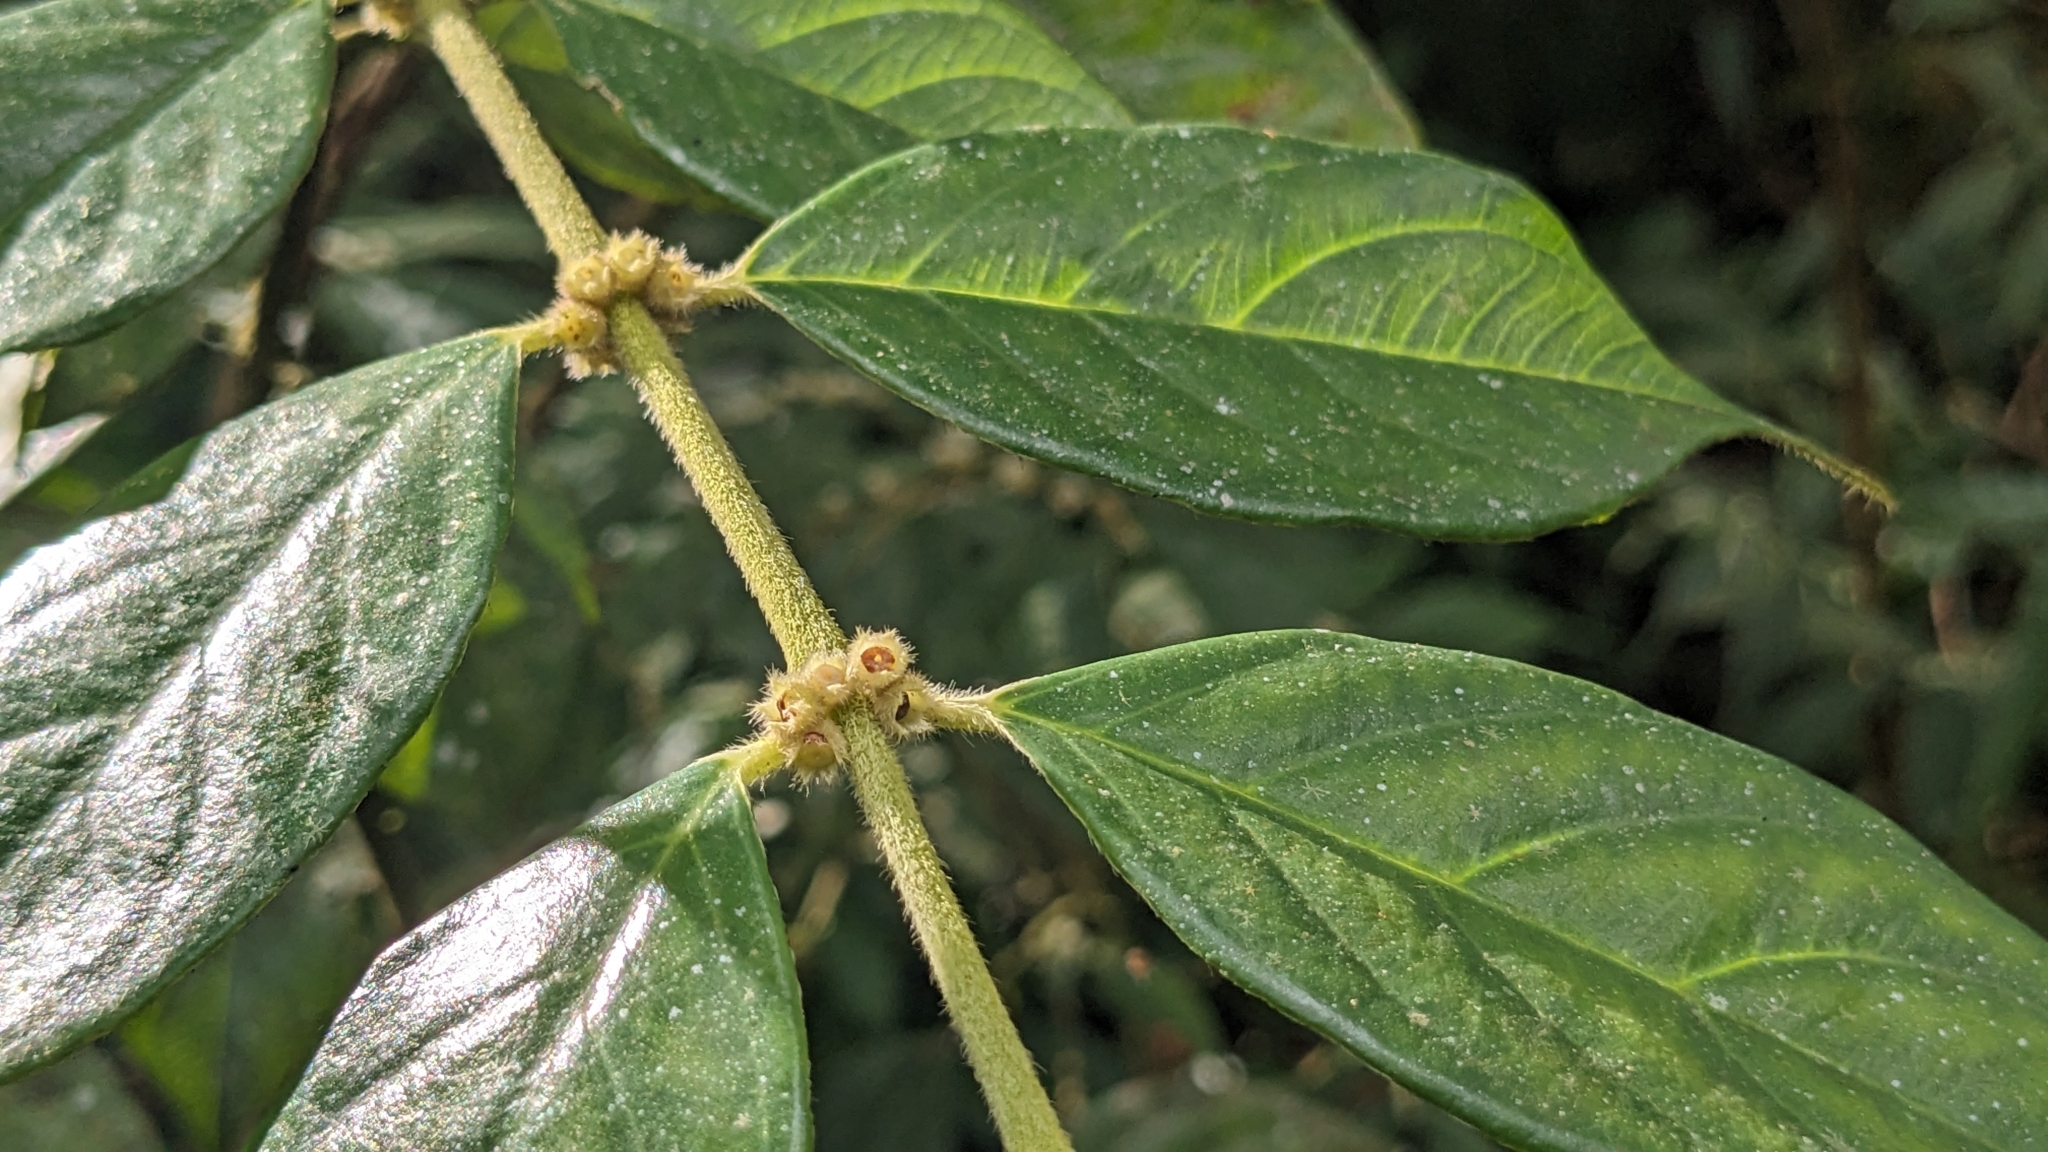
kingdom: Plantae
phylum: Tracheophyta
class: Magnoliopsida
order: Gentianales
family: Rubiaceae
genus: Lasianthus
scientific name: Lasianthus hispidulus
